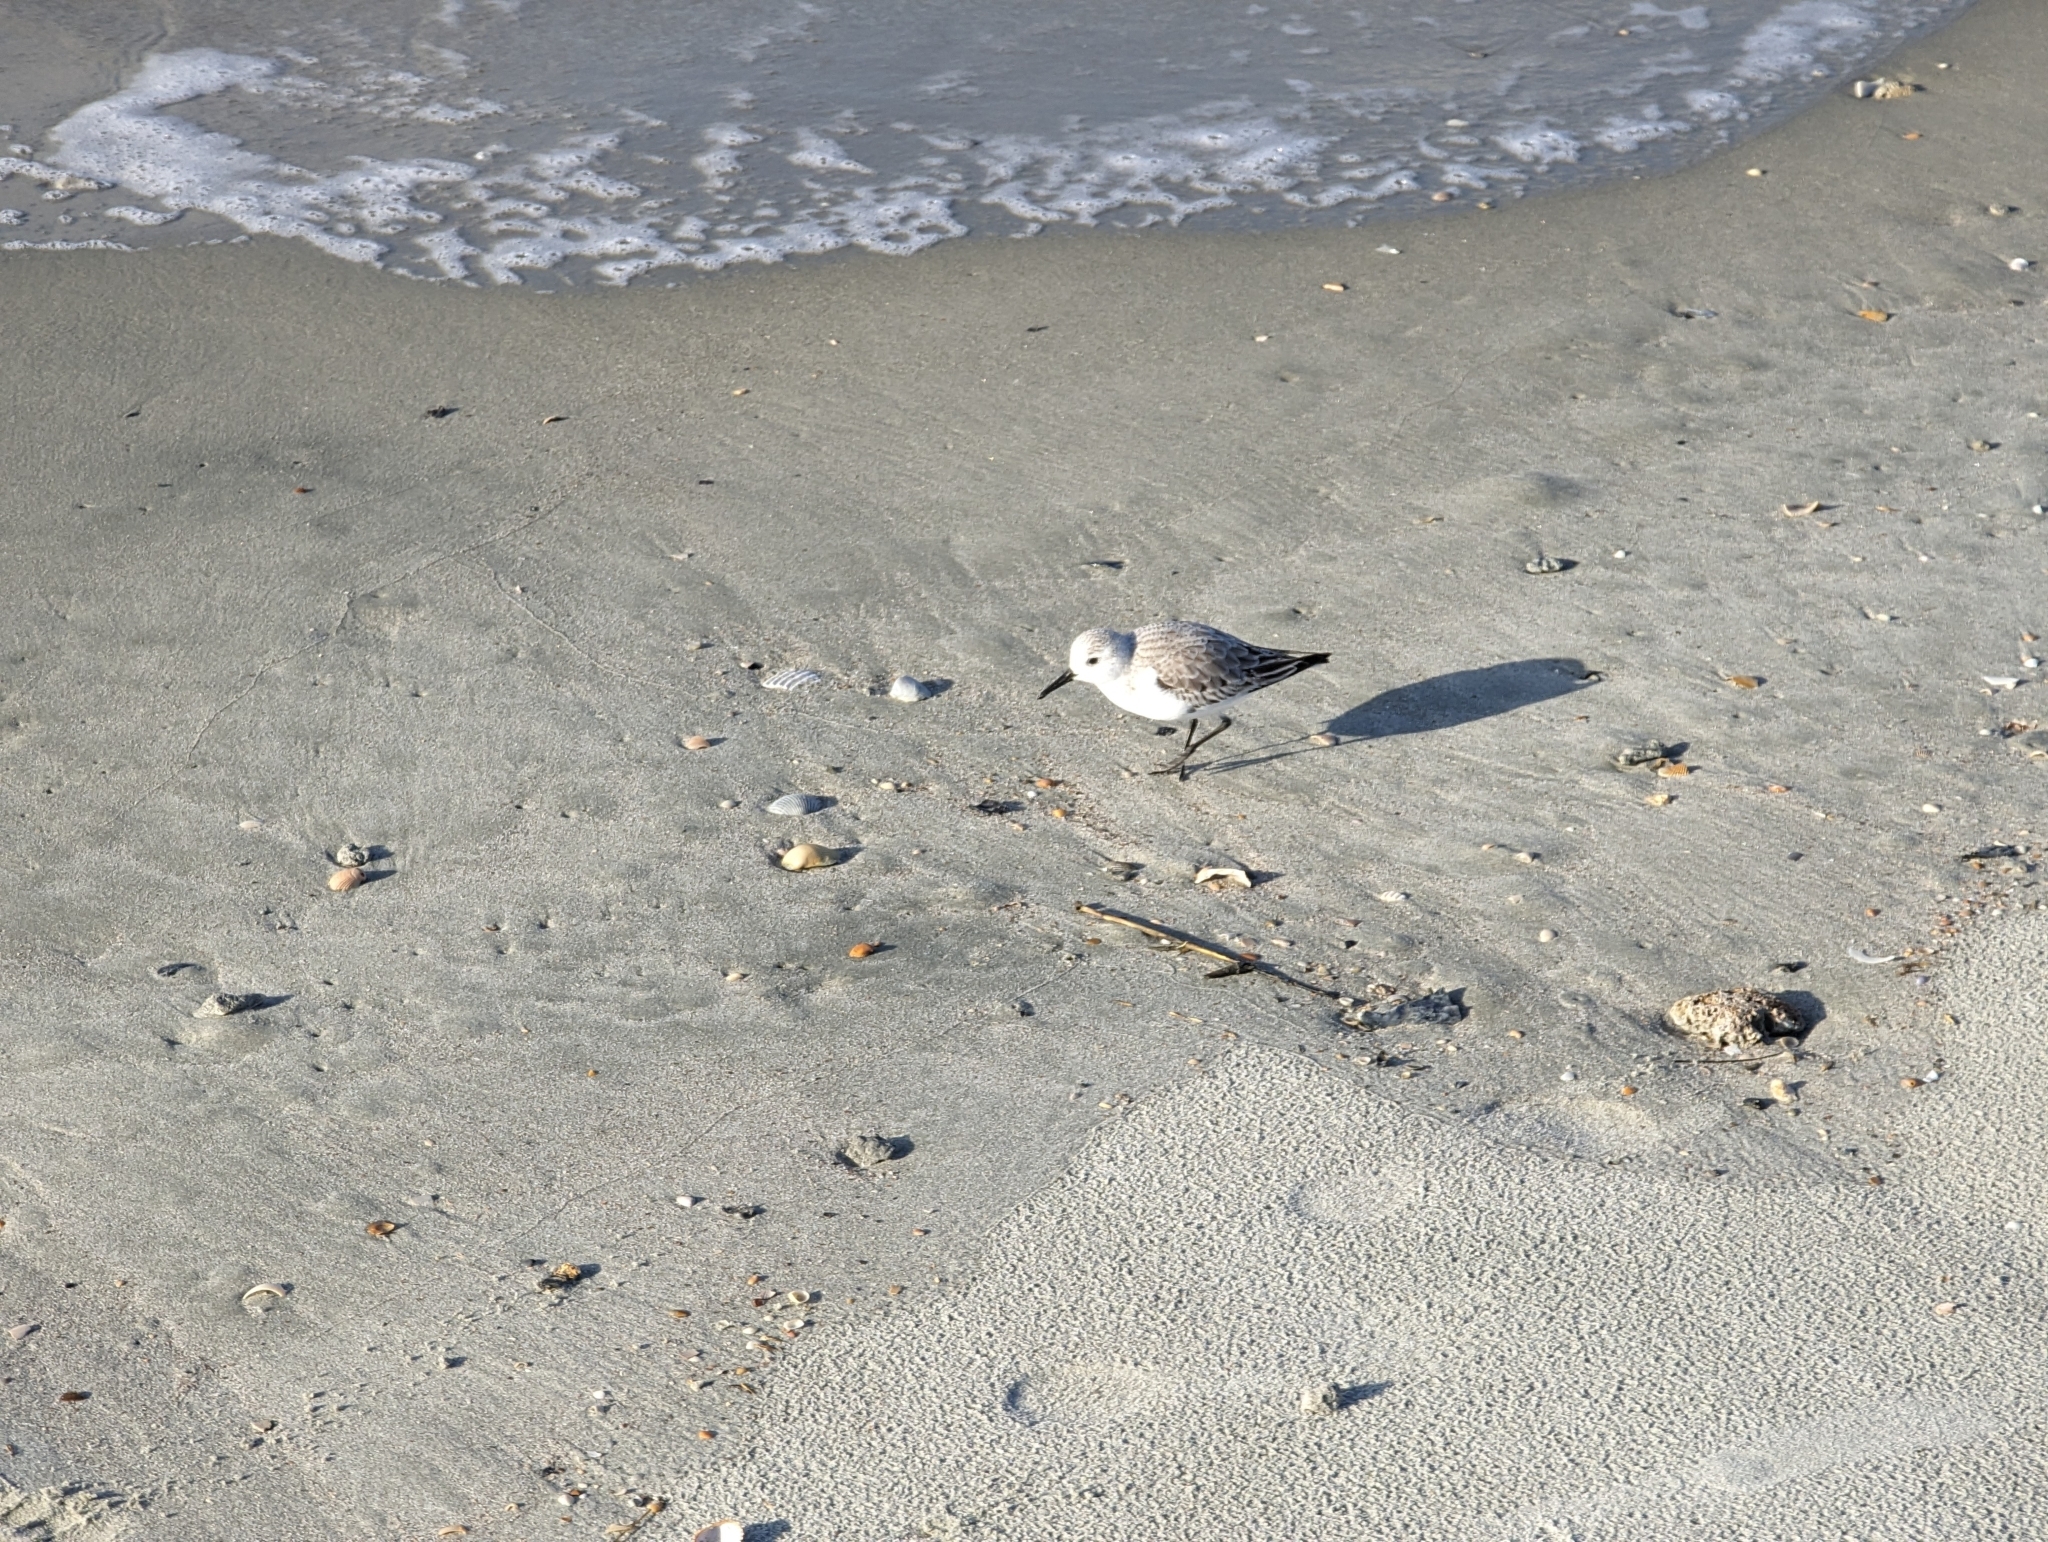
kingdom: Animalia
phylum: Chordata
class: Aves
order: Charadriiformes
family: Scolopacidae
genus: Calidris
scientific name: Calidris alba
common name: Sanderling
